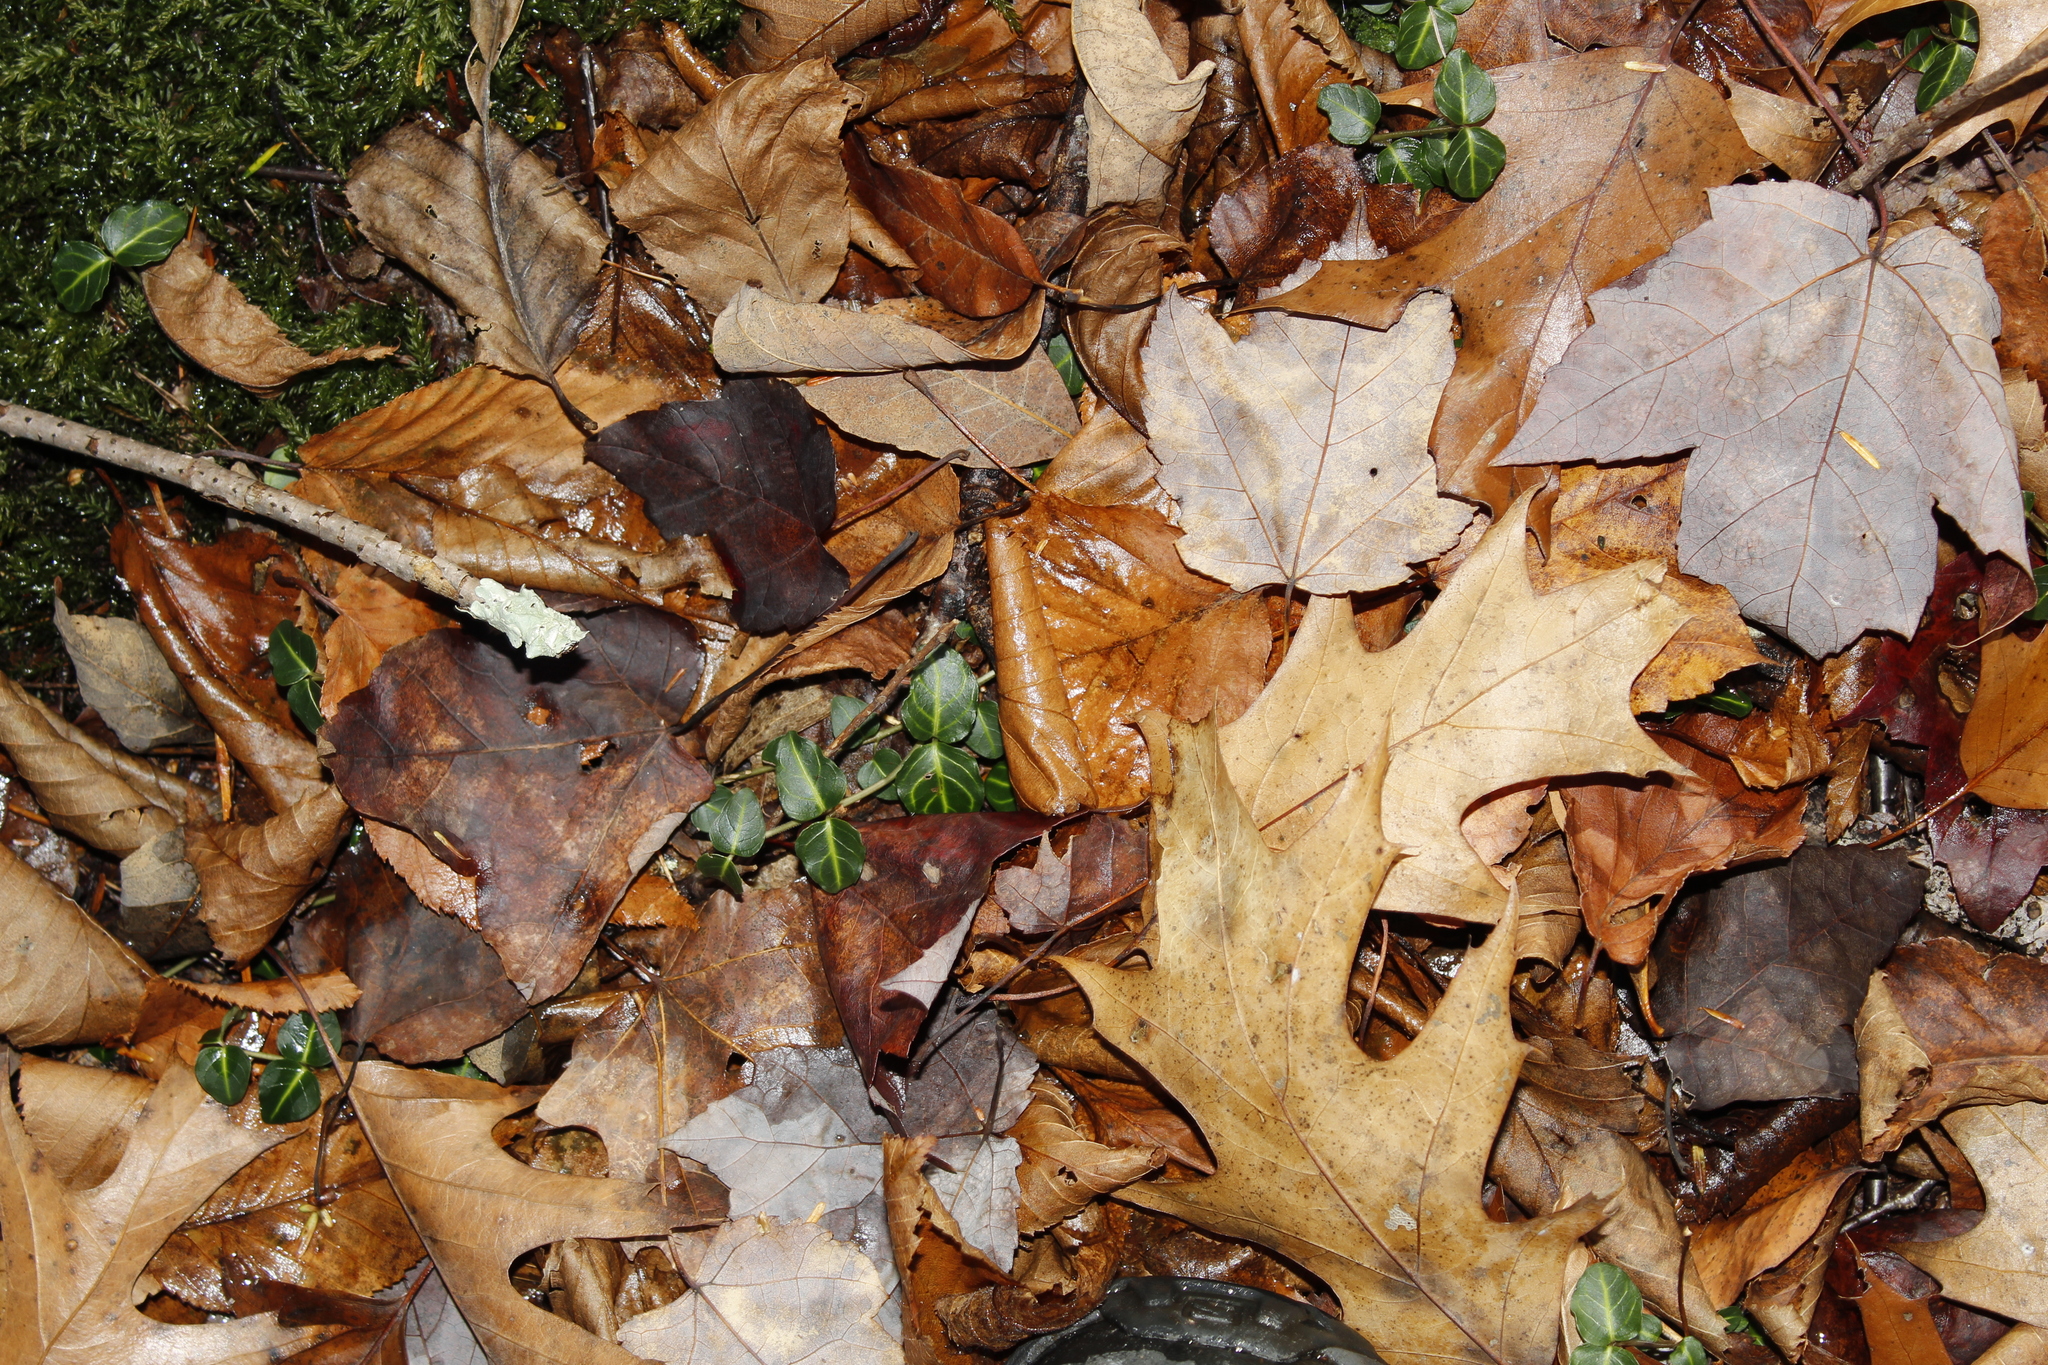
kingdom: Plantae
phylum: Tracheophyta
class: Magnoliopsida
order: Gentianales
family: Rubiaceae
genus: Mitchella
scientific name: Mitchella repens
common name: Partridge-berry
